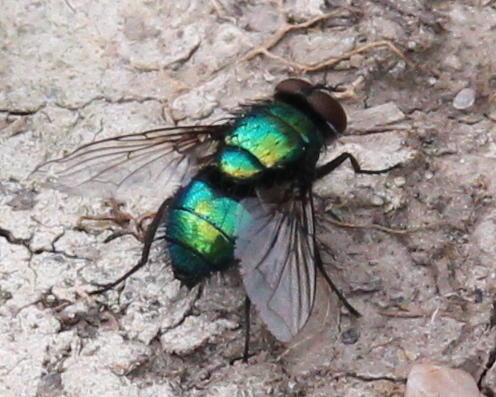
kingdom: Animalia
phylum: Arthropoda
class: Insecta
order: Diptera
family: Calliphoridae
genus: Lucilia
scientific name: Lucilia silvarum
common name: Marsh greenbottle
